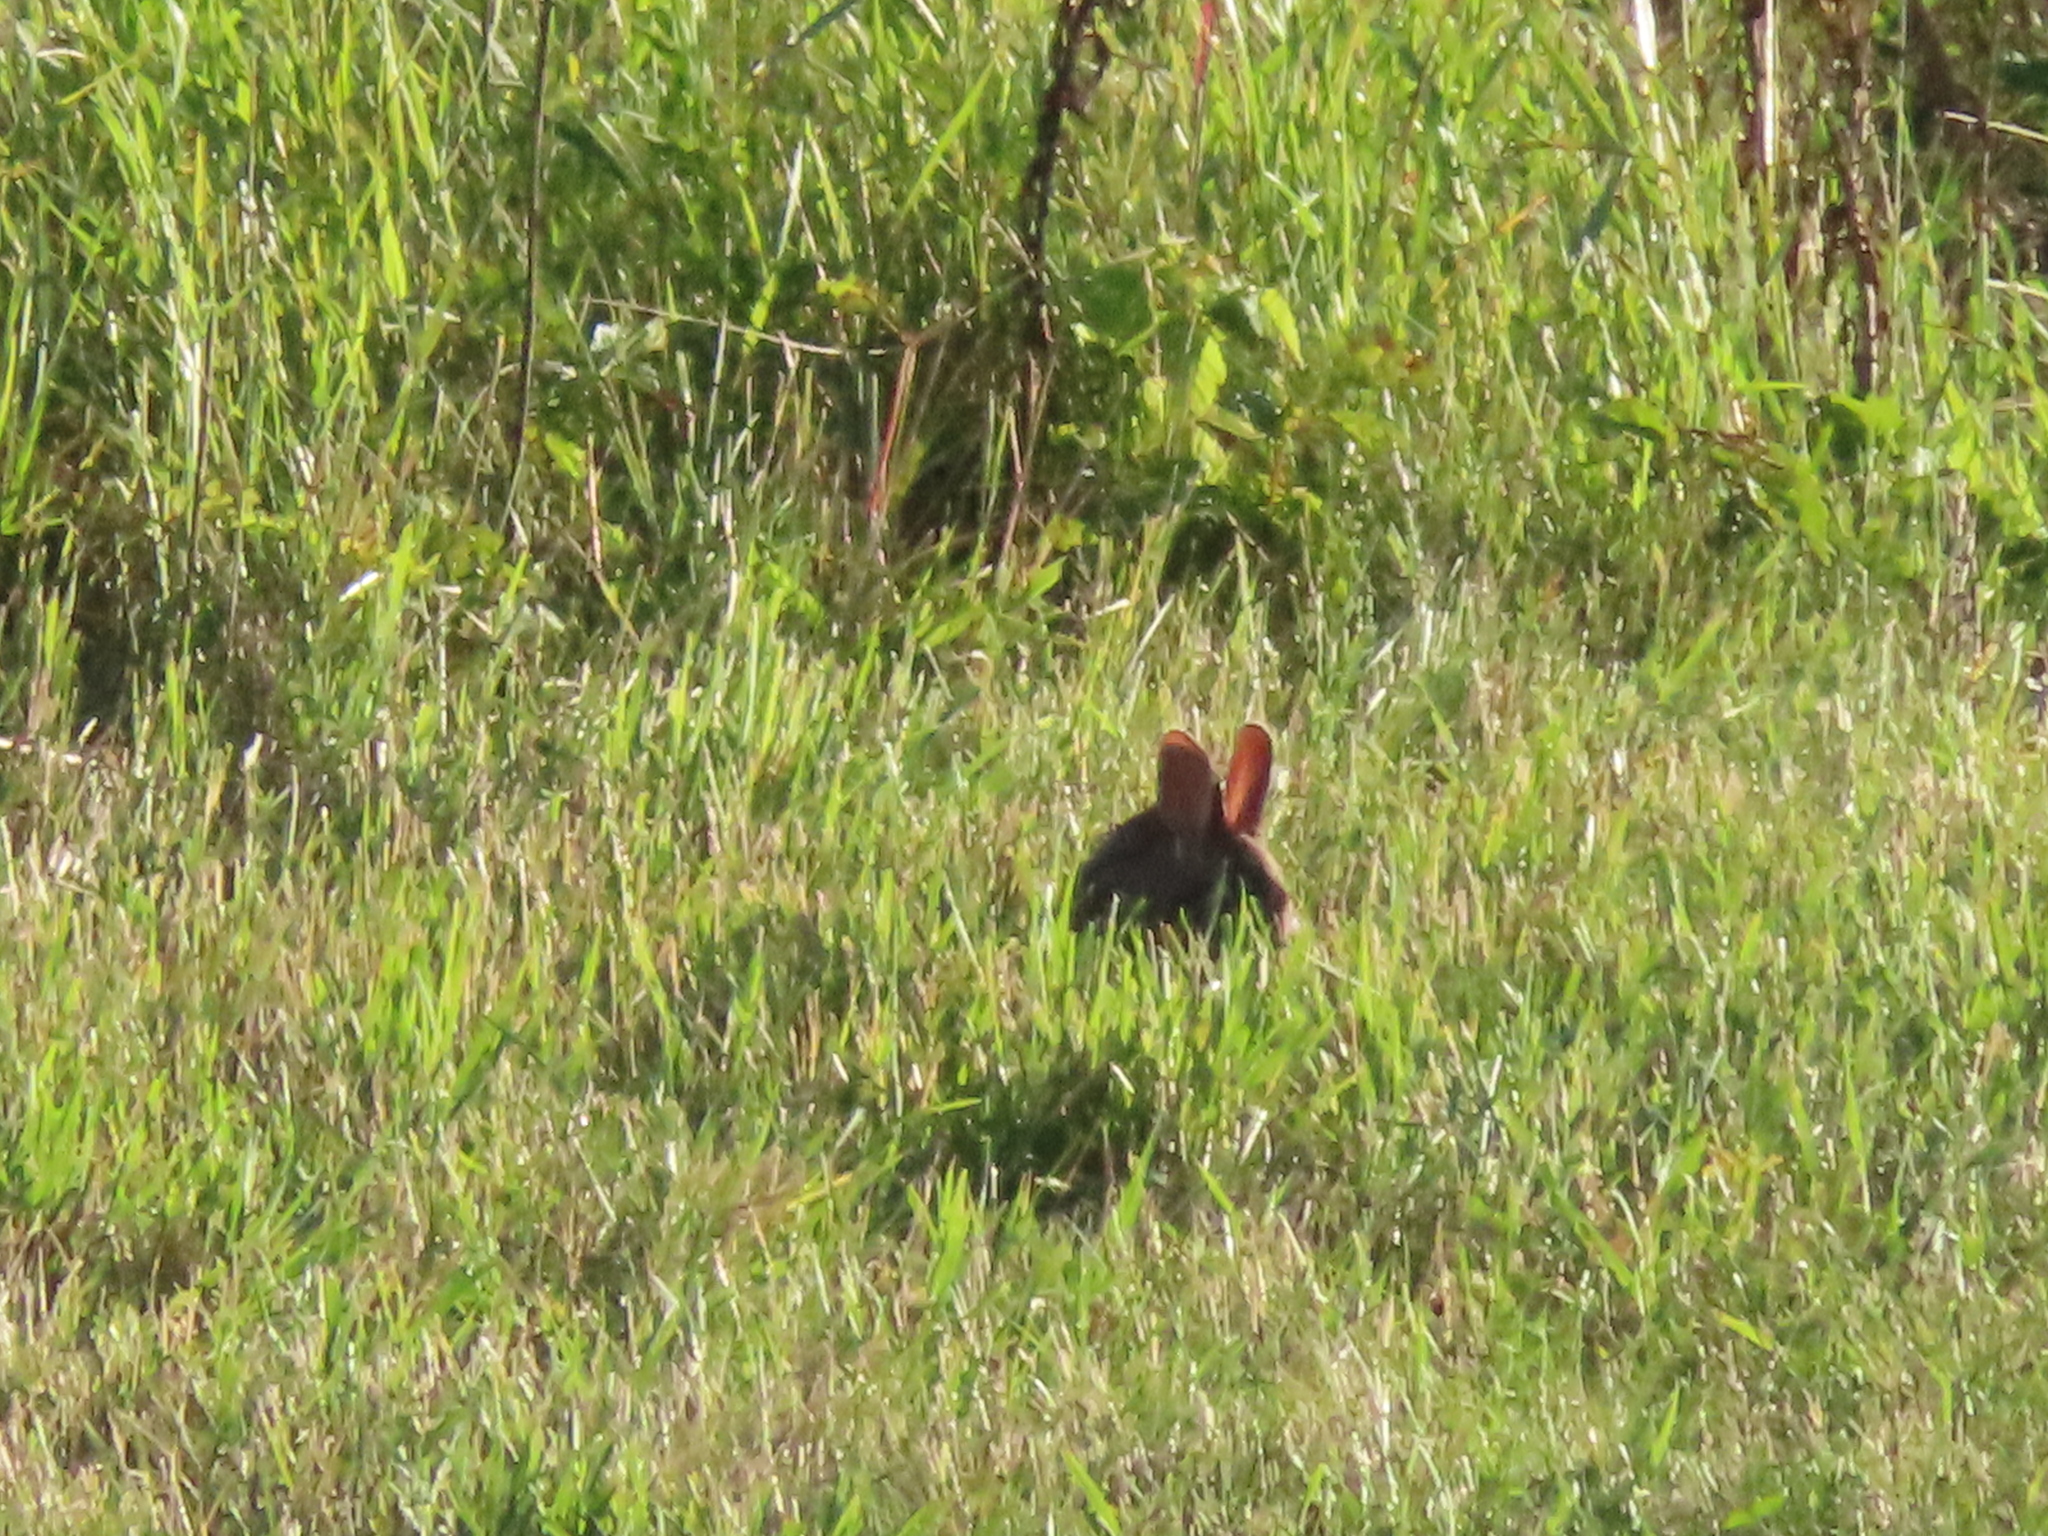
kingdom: Animalia
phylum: Chordata
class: Mammalia
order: Lagomorpha
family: Leporidae
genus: Sylvilagus
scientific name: Sylvilagus floridanus
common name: Eastern cottontail
